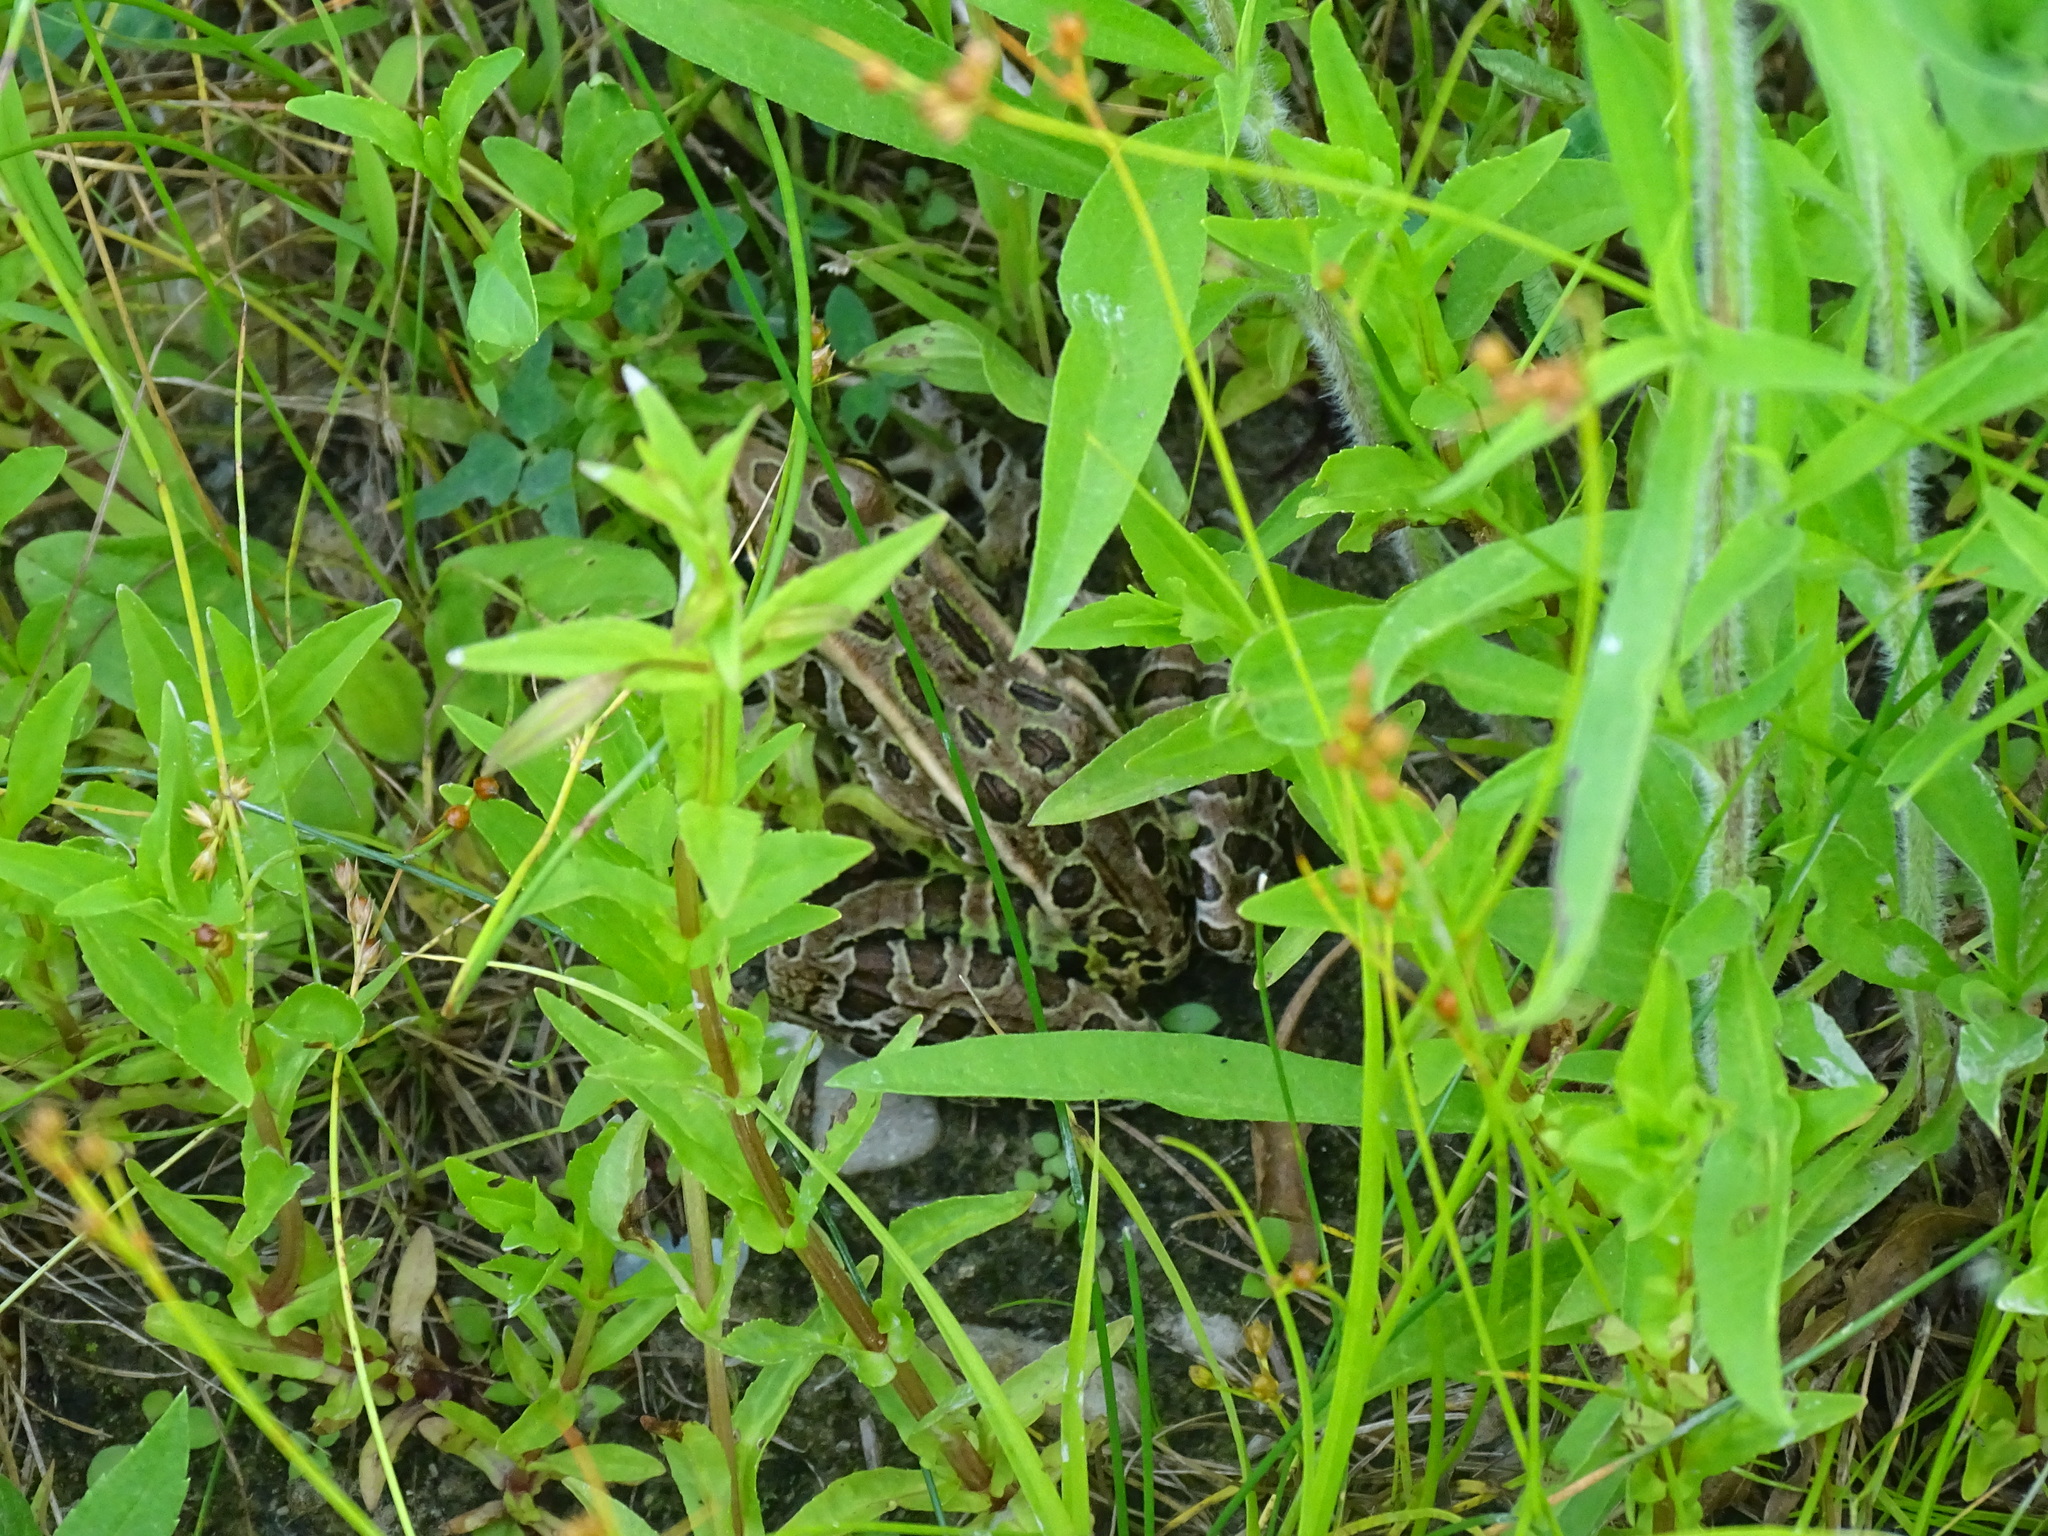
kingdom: Animalia
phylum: Chordata
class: Amphibia
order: Anura
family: Ranidae
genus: Lithobates
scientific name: Lithobates pipiens
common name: Northern leopard frog
